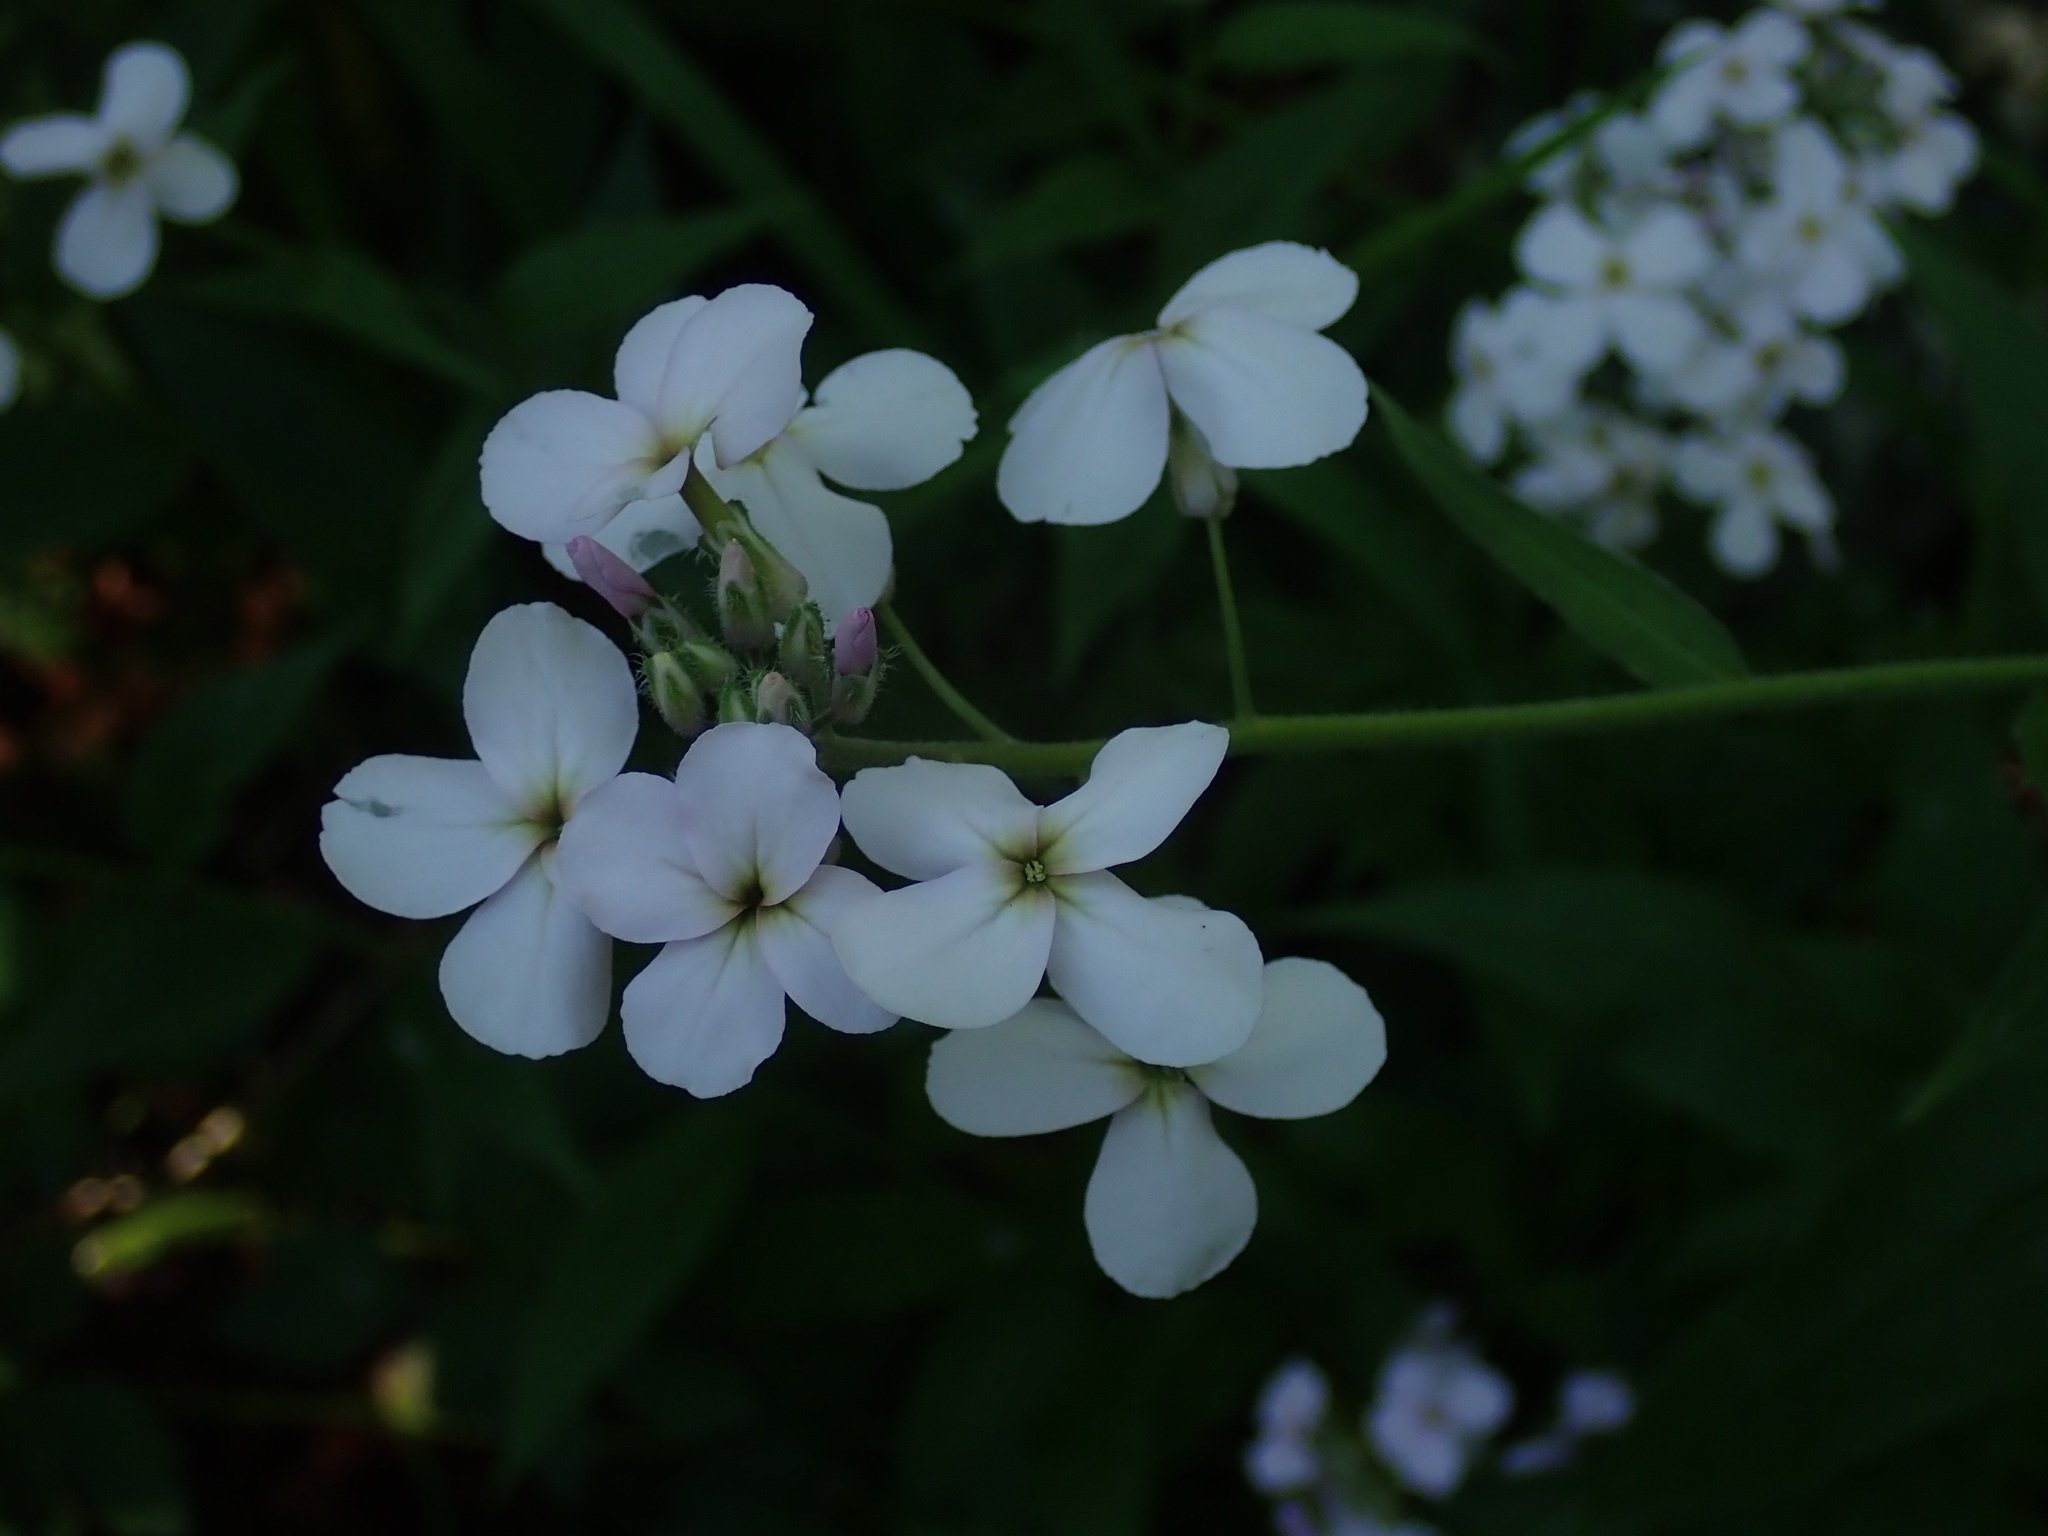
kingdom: Plantae
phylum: Tracheophyta
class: Magnoliopsida
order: Brassicales
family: Brassicaceae
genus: Hesperis
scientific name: Hesperis matronalis
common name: Dame's-violet
